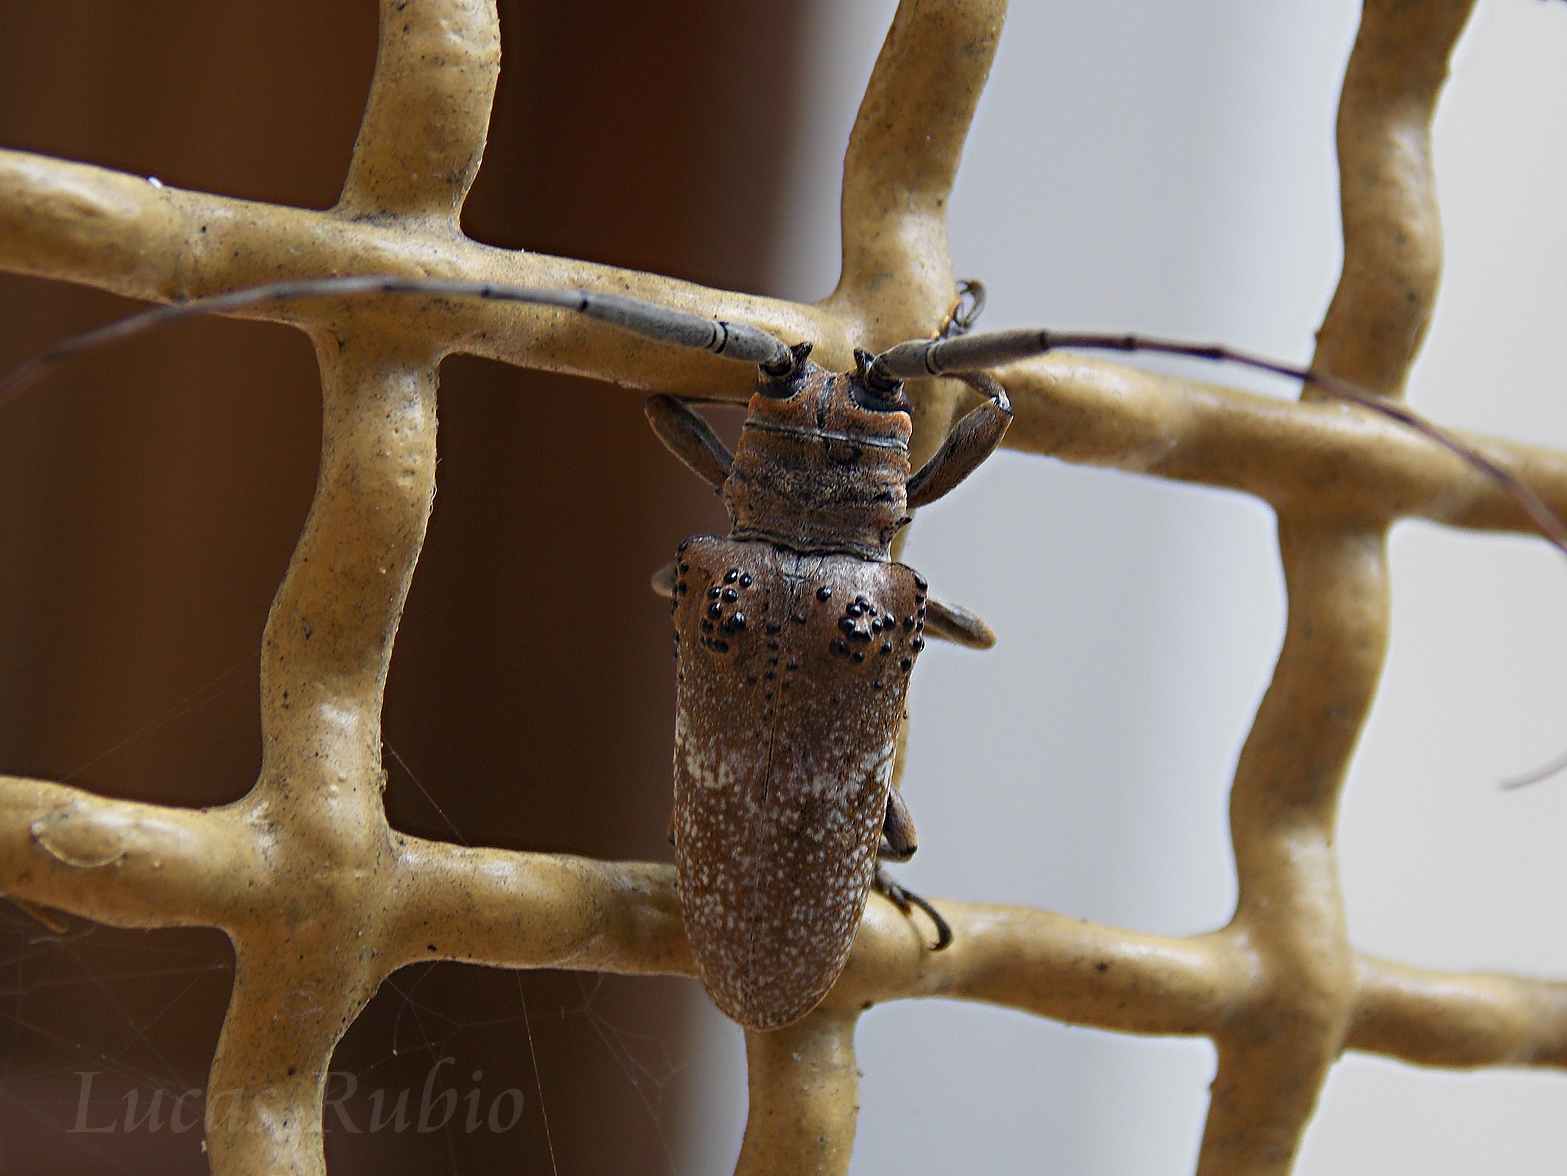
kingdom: Animalia
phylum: Arthropoda
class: Insecta
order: Coleoptera
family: Cerambycidae
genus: Oncideres
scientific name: Oncideres ulcerosa
